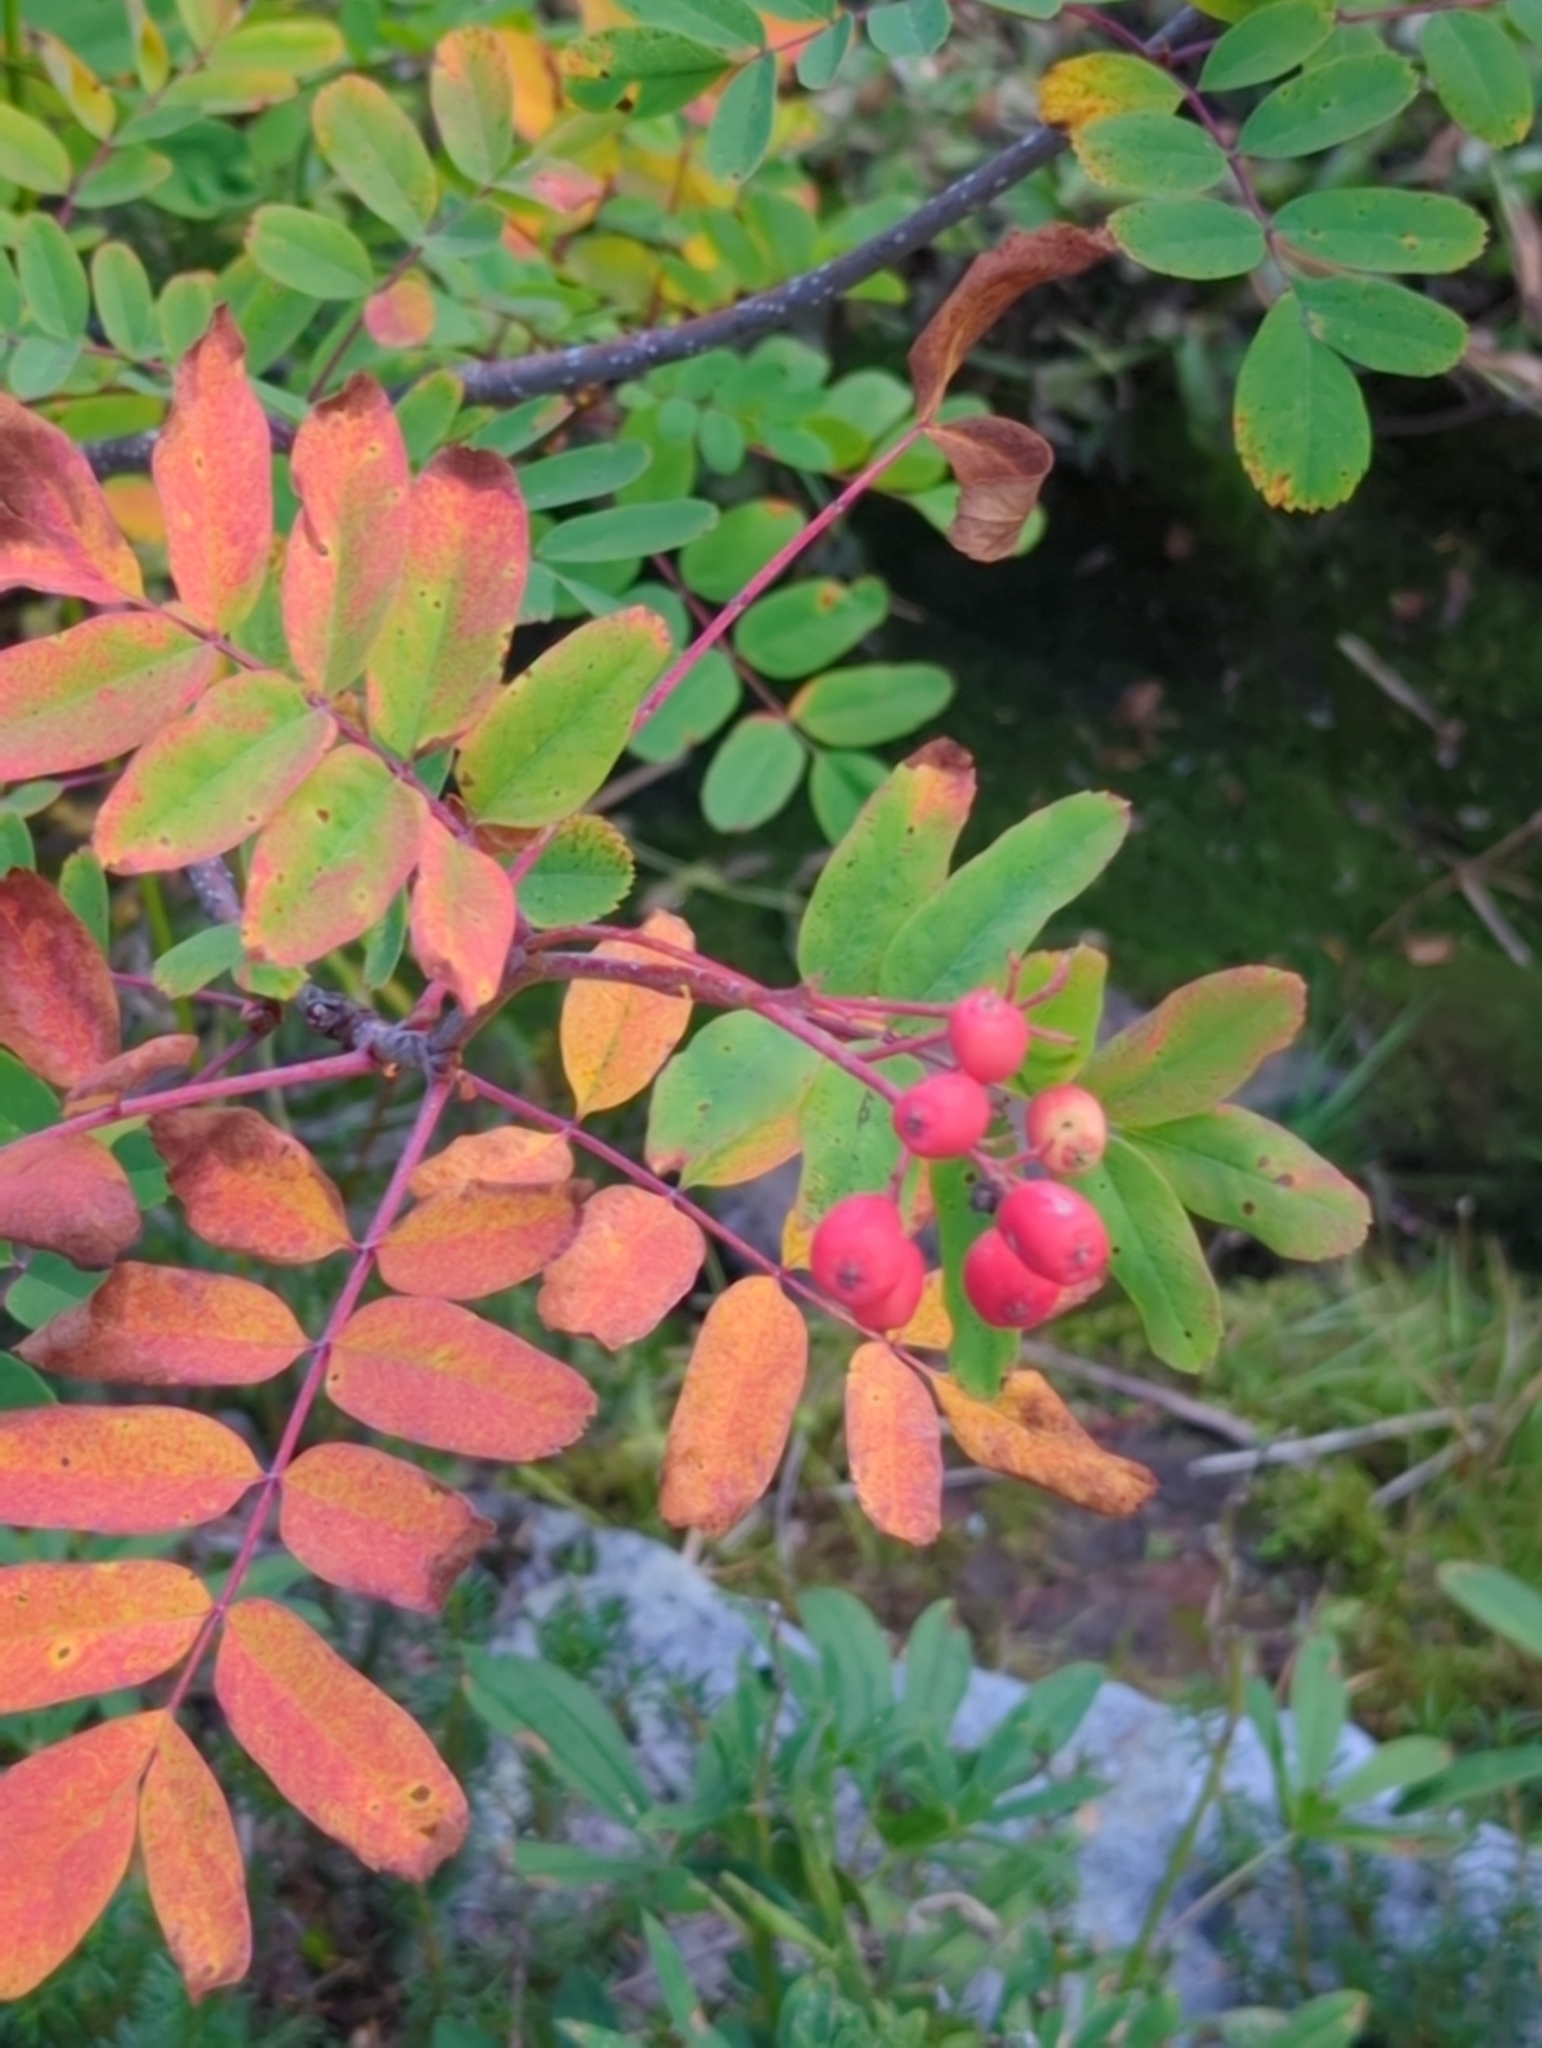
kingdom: Plantae
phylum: Tracheophyta
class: Magnoliopsida
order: Rosales
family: Rosaceae
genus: Sorbus
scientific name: Sorbus sitchensis
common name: Sitka mountain-ash
